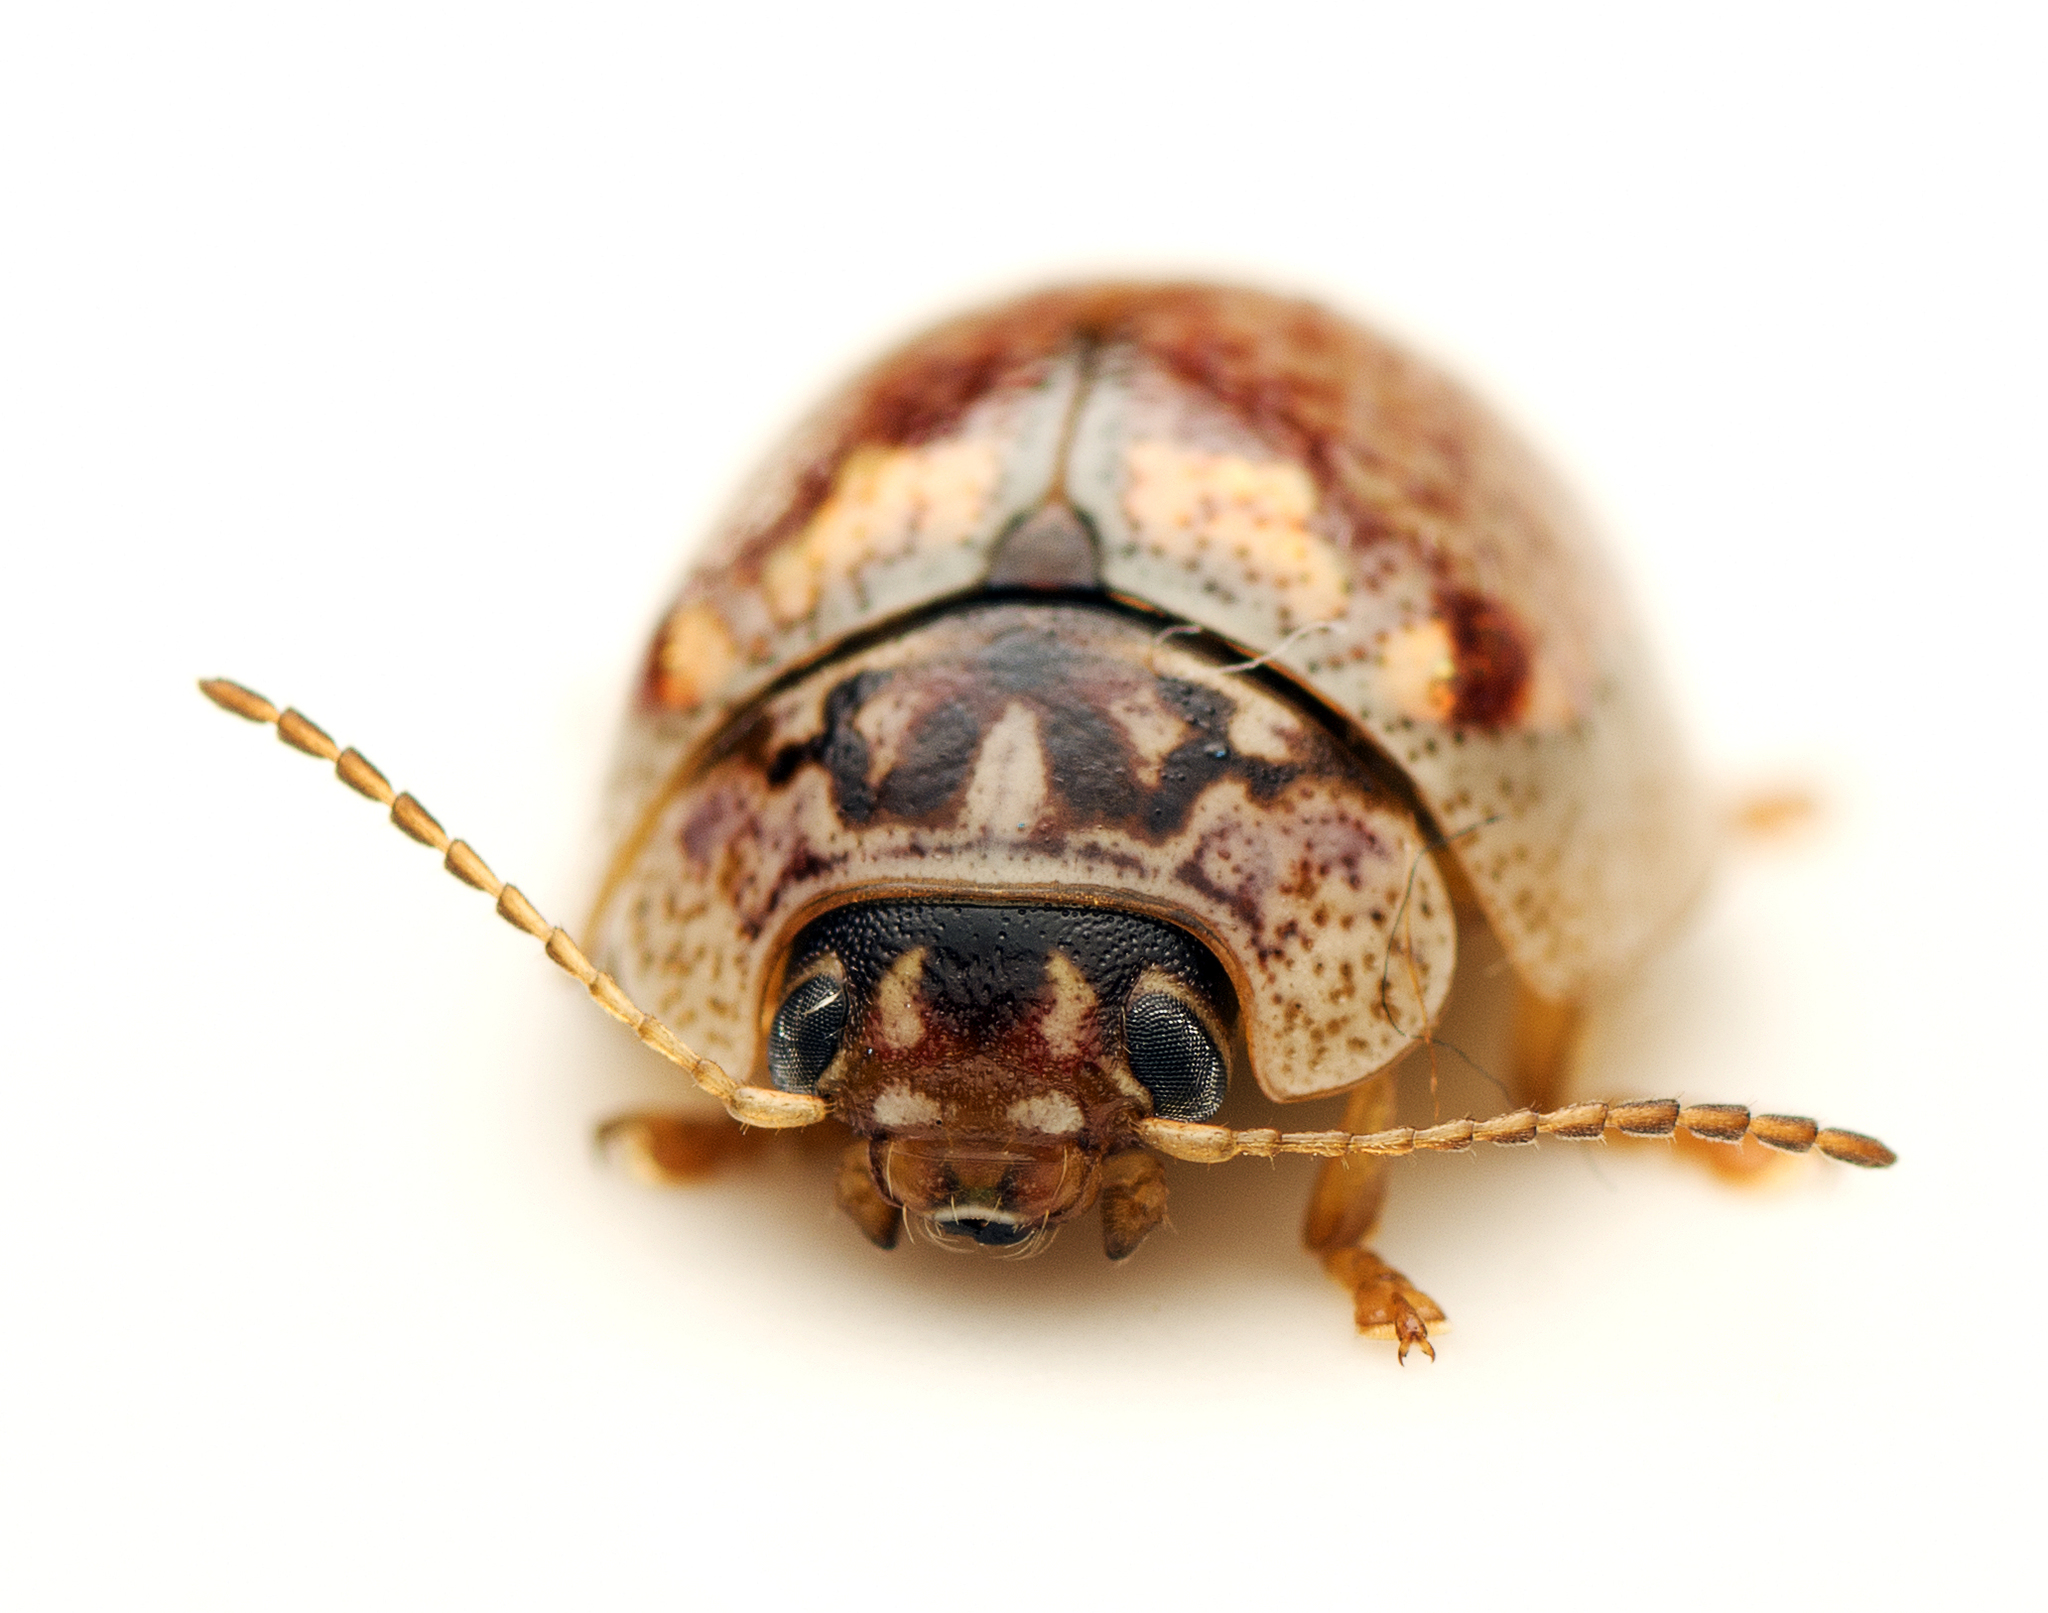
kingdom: Animalia
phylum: Arthropoda
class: Insecta
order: Coleoptera
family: Chrysomelidae
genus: Paropsisterna
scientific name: Paropsisterna m-fuscum
